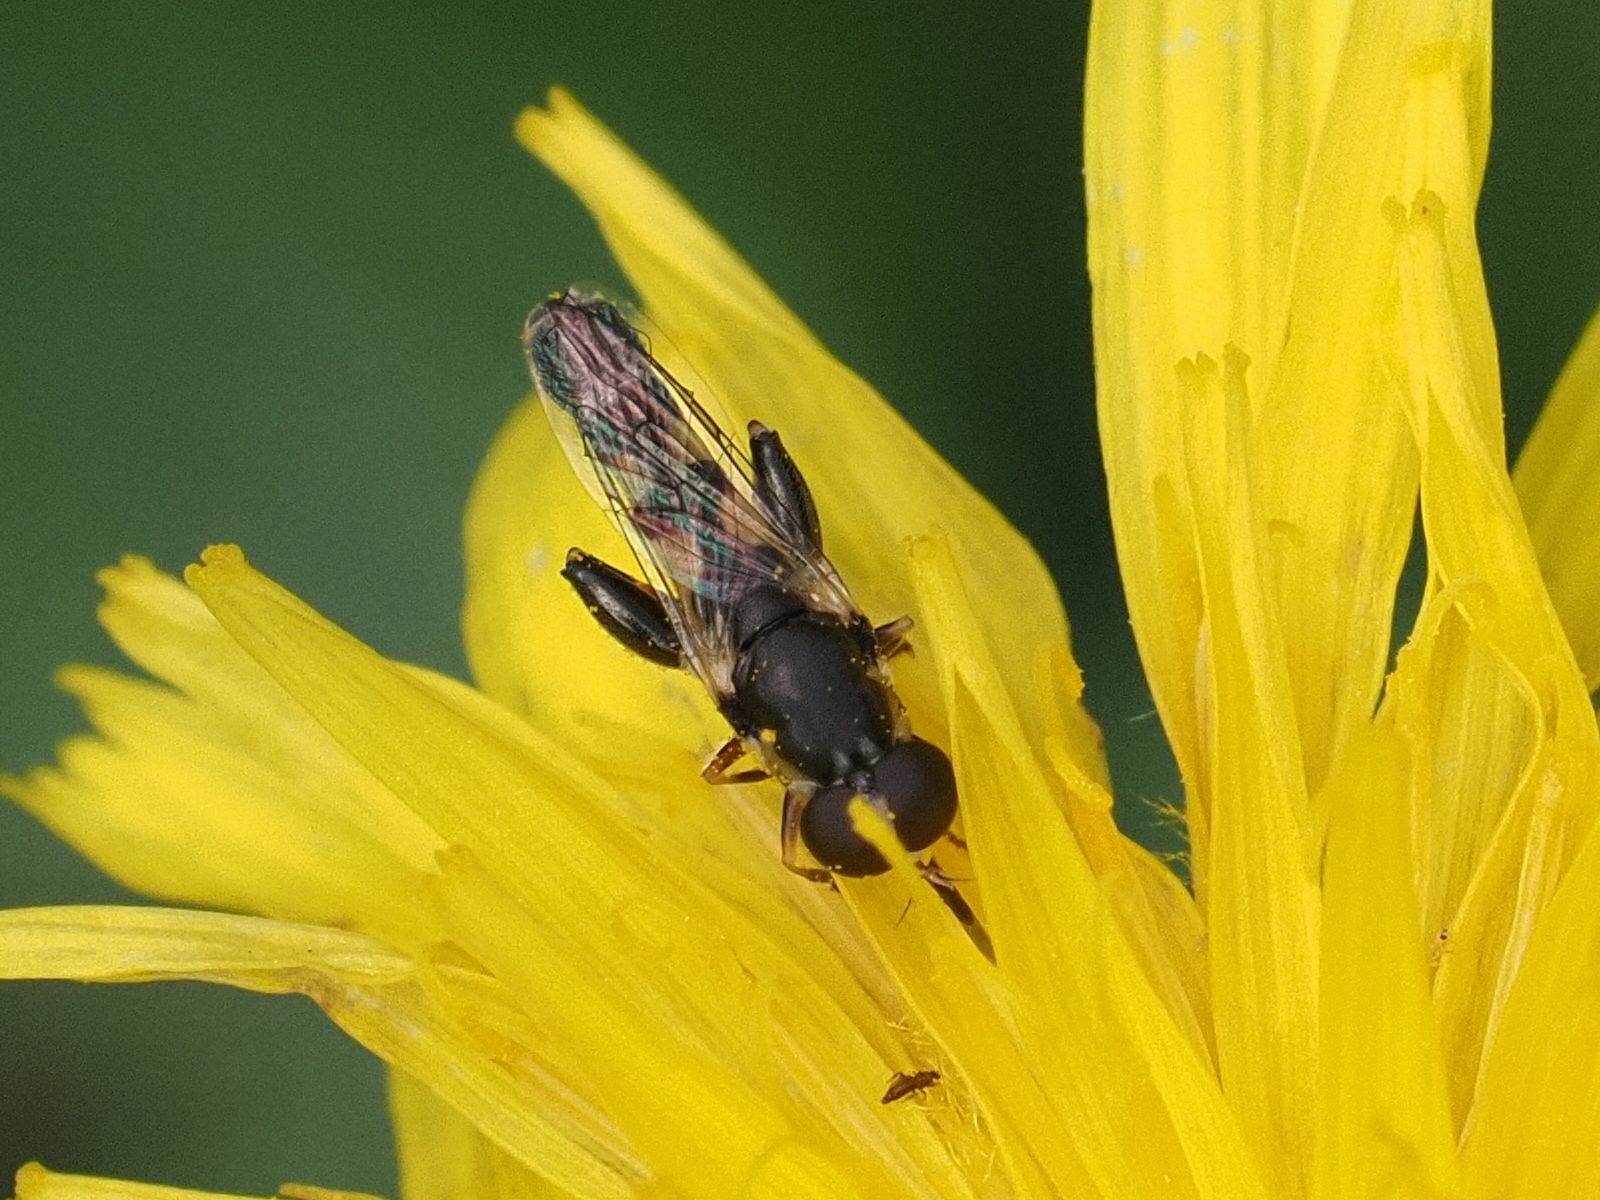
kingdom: Animalia
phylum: Arthropoda
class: Insecta
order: Diptera
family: Syrphidae
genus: Syritta
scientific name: Syritta pipiens
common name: Hover fly
